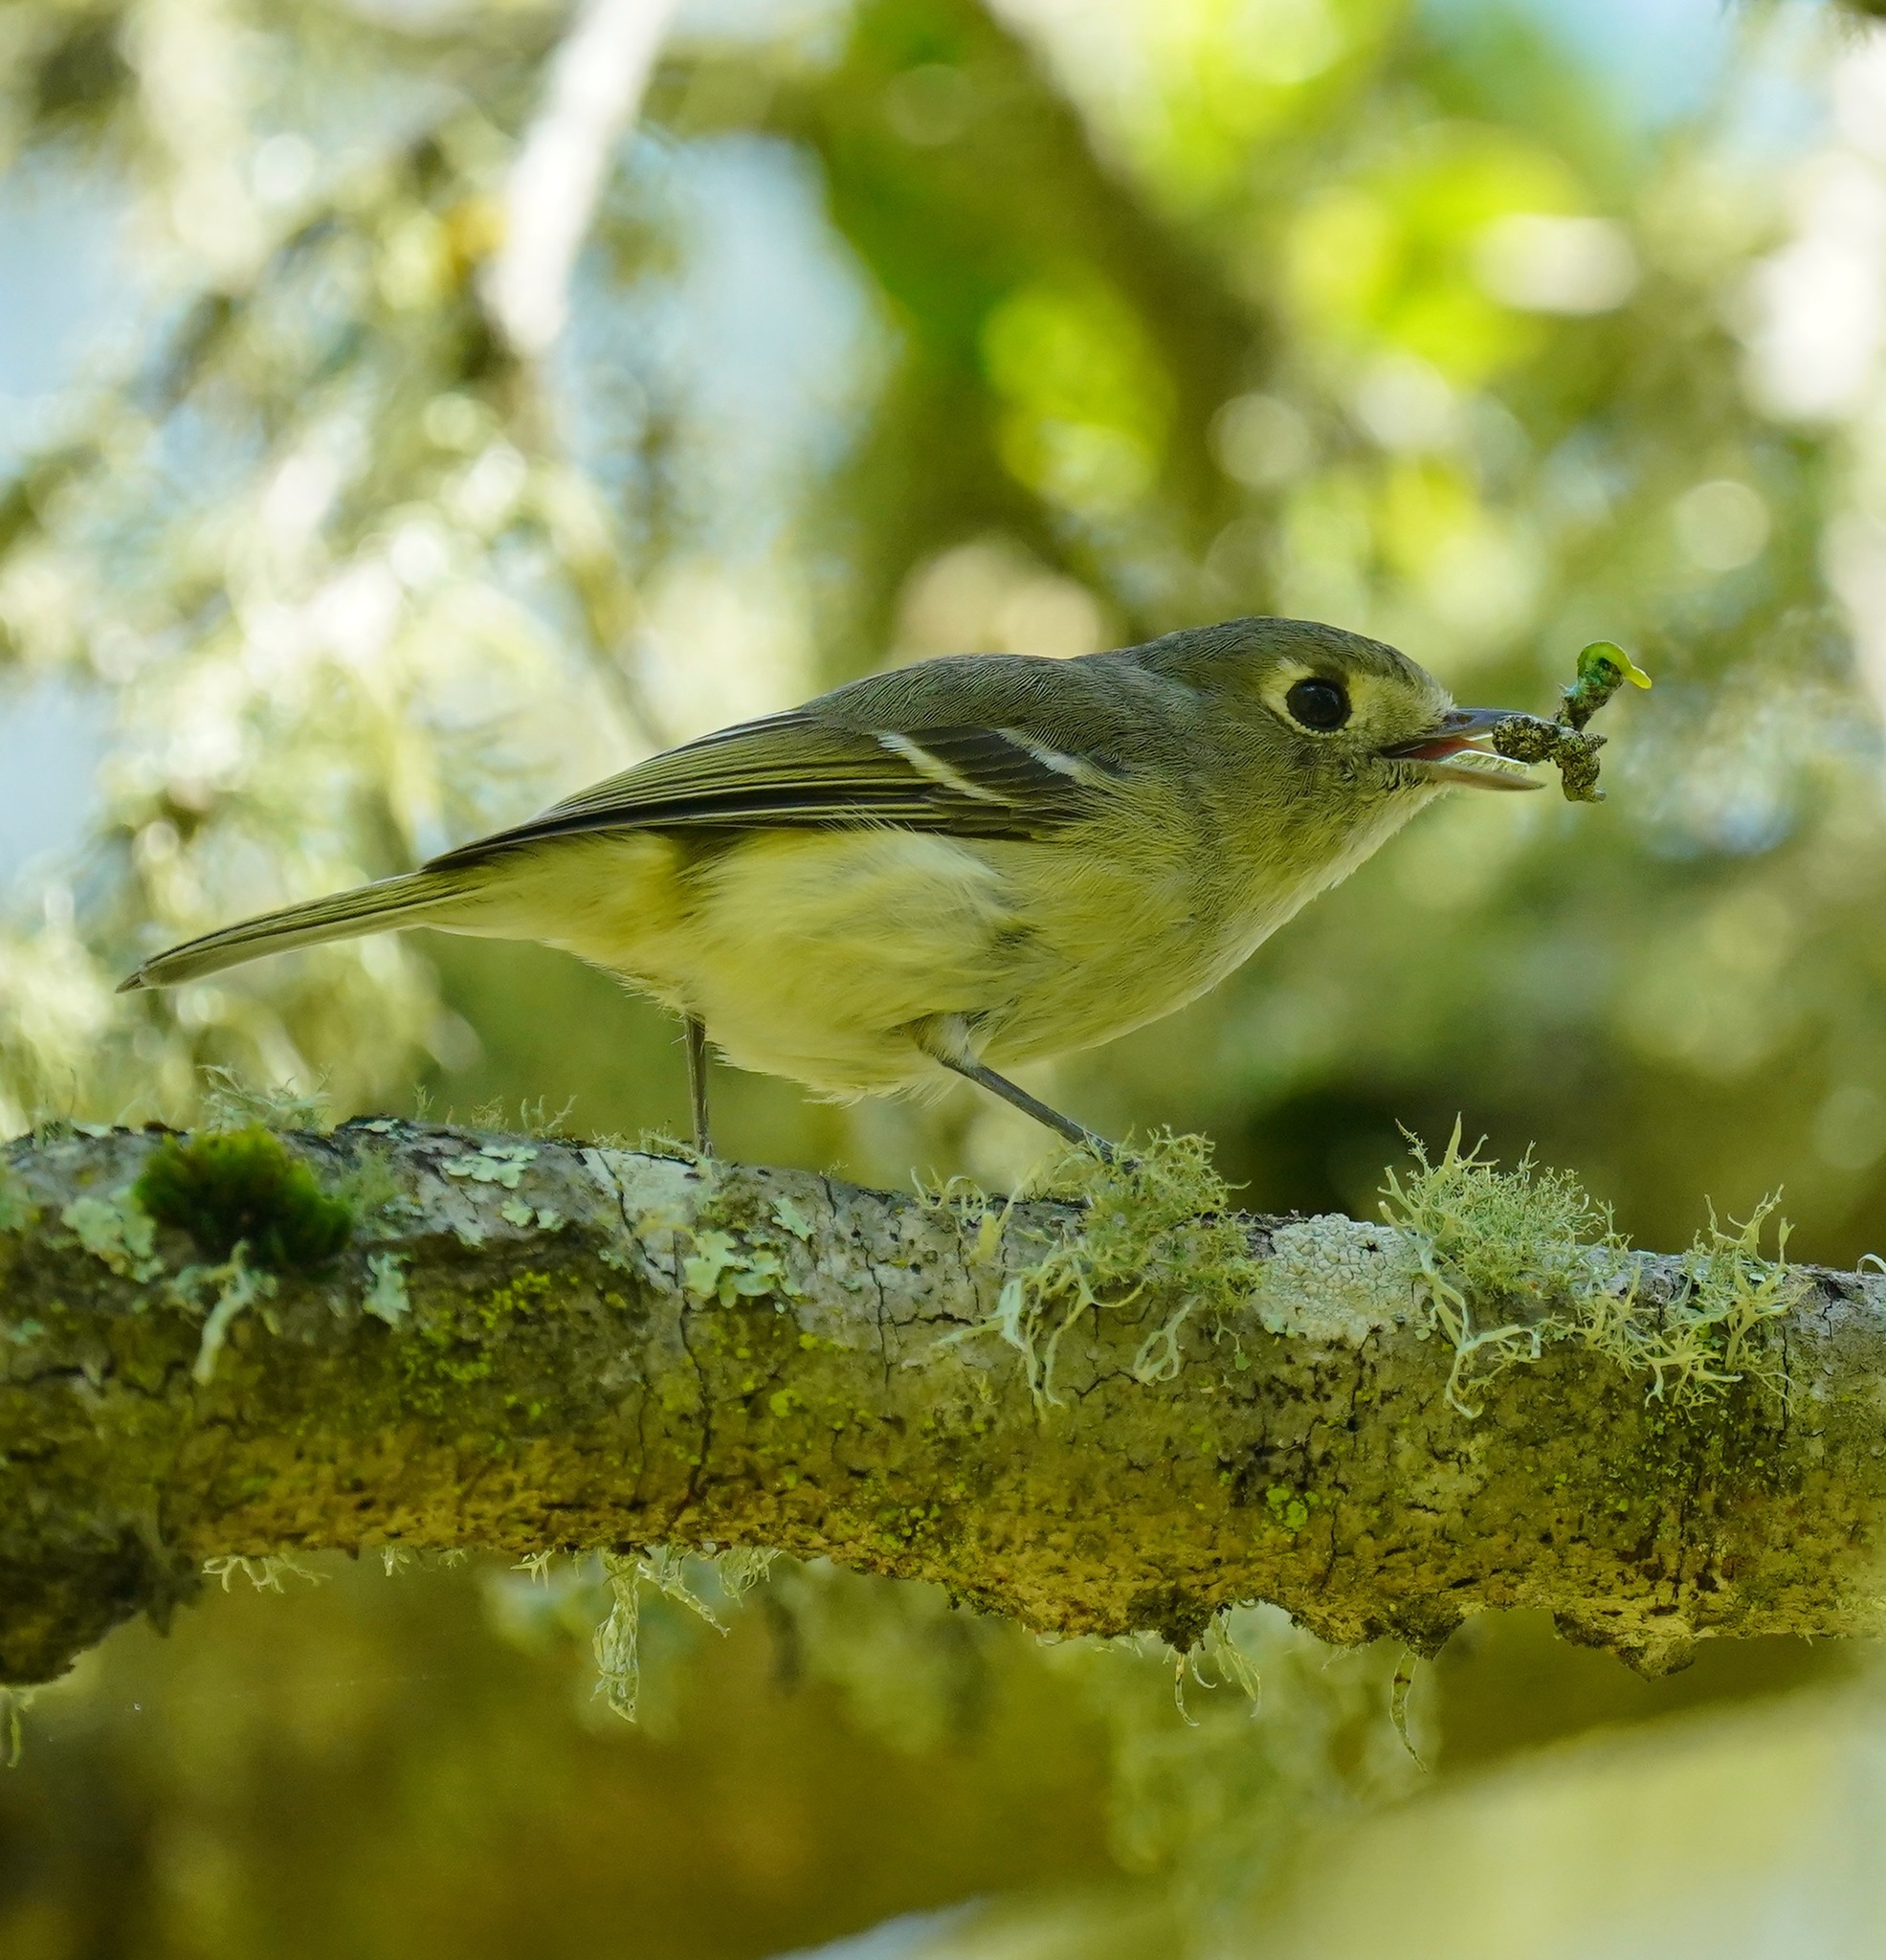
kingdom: Animalia
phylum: Chordata
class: Aves
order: Passeriformes
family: Vireonidae
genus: Vireo
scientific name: Vireo huttoni
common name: Hutton's vireo
